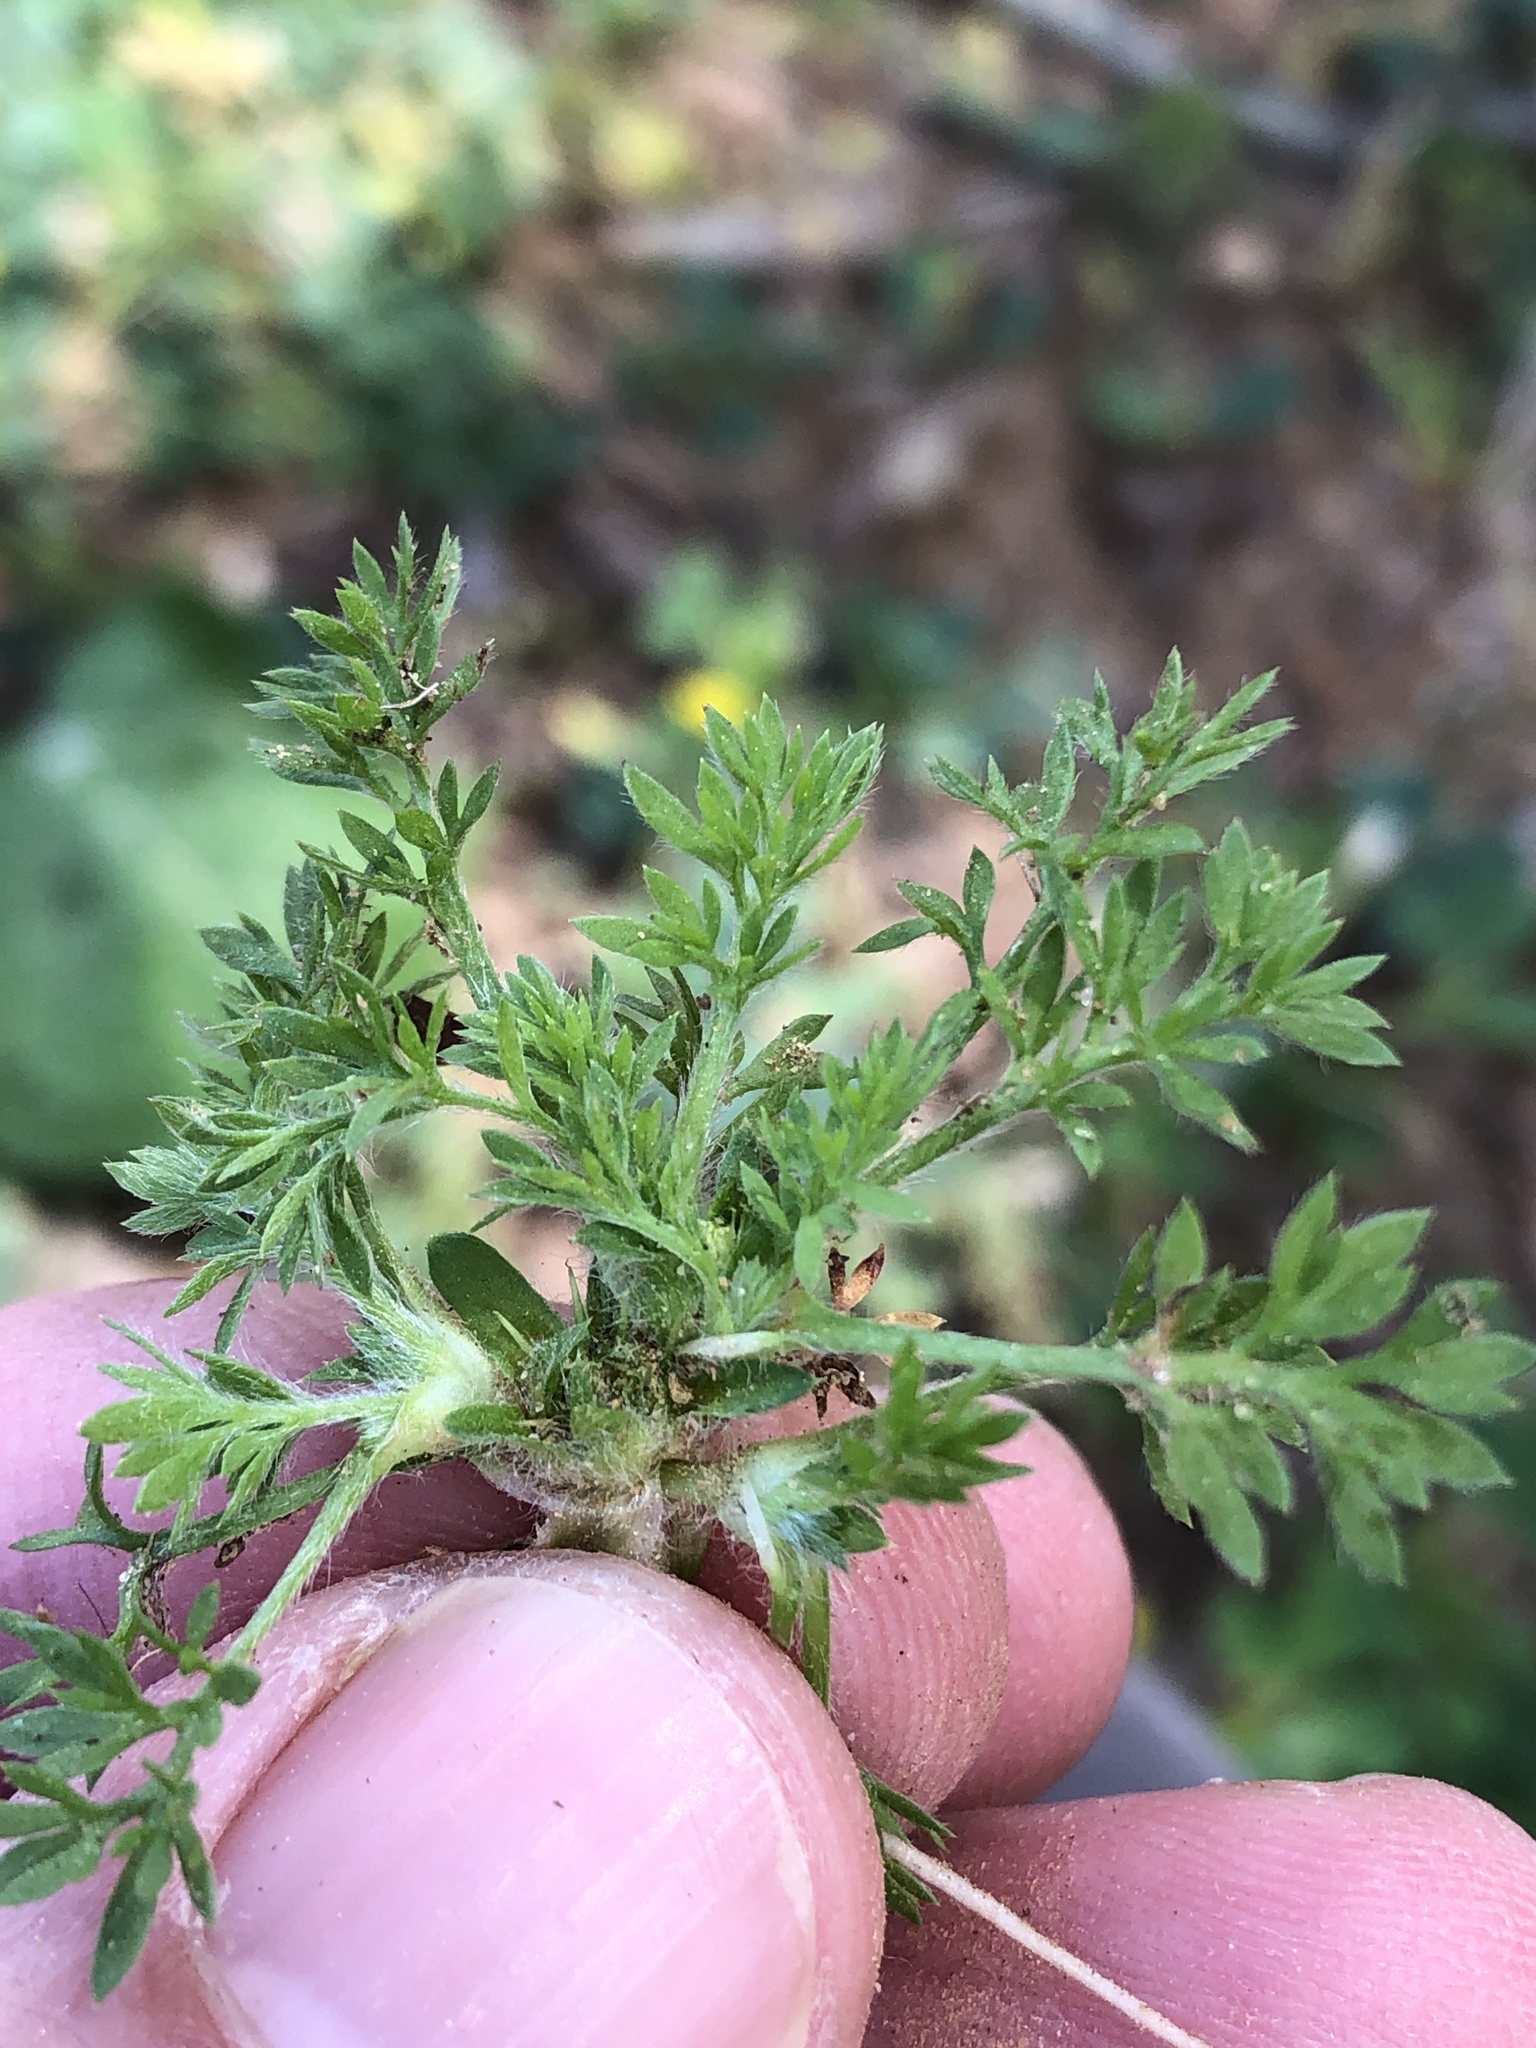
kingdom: Plantae
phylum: Tracheophyta
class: Magnoliopsida
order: Asterales
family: Asteraceae
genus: Soliva
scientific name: Soliva sessilis
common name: Field burrweed
